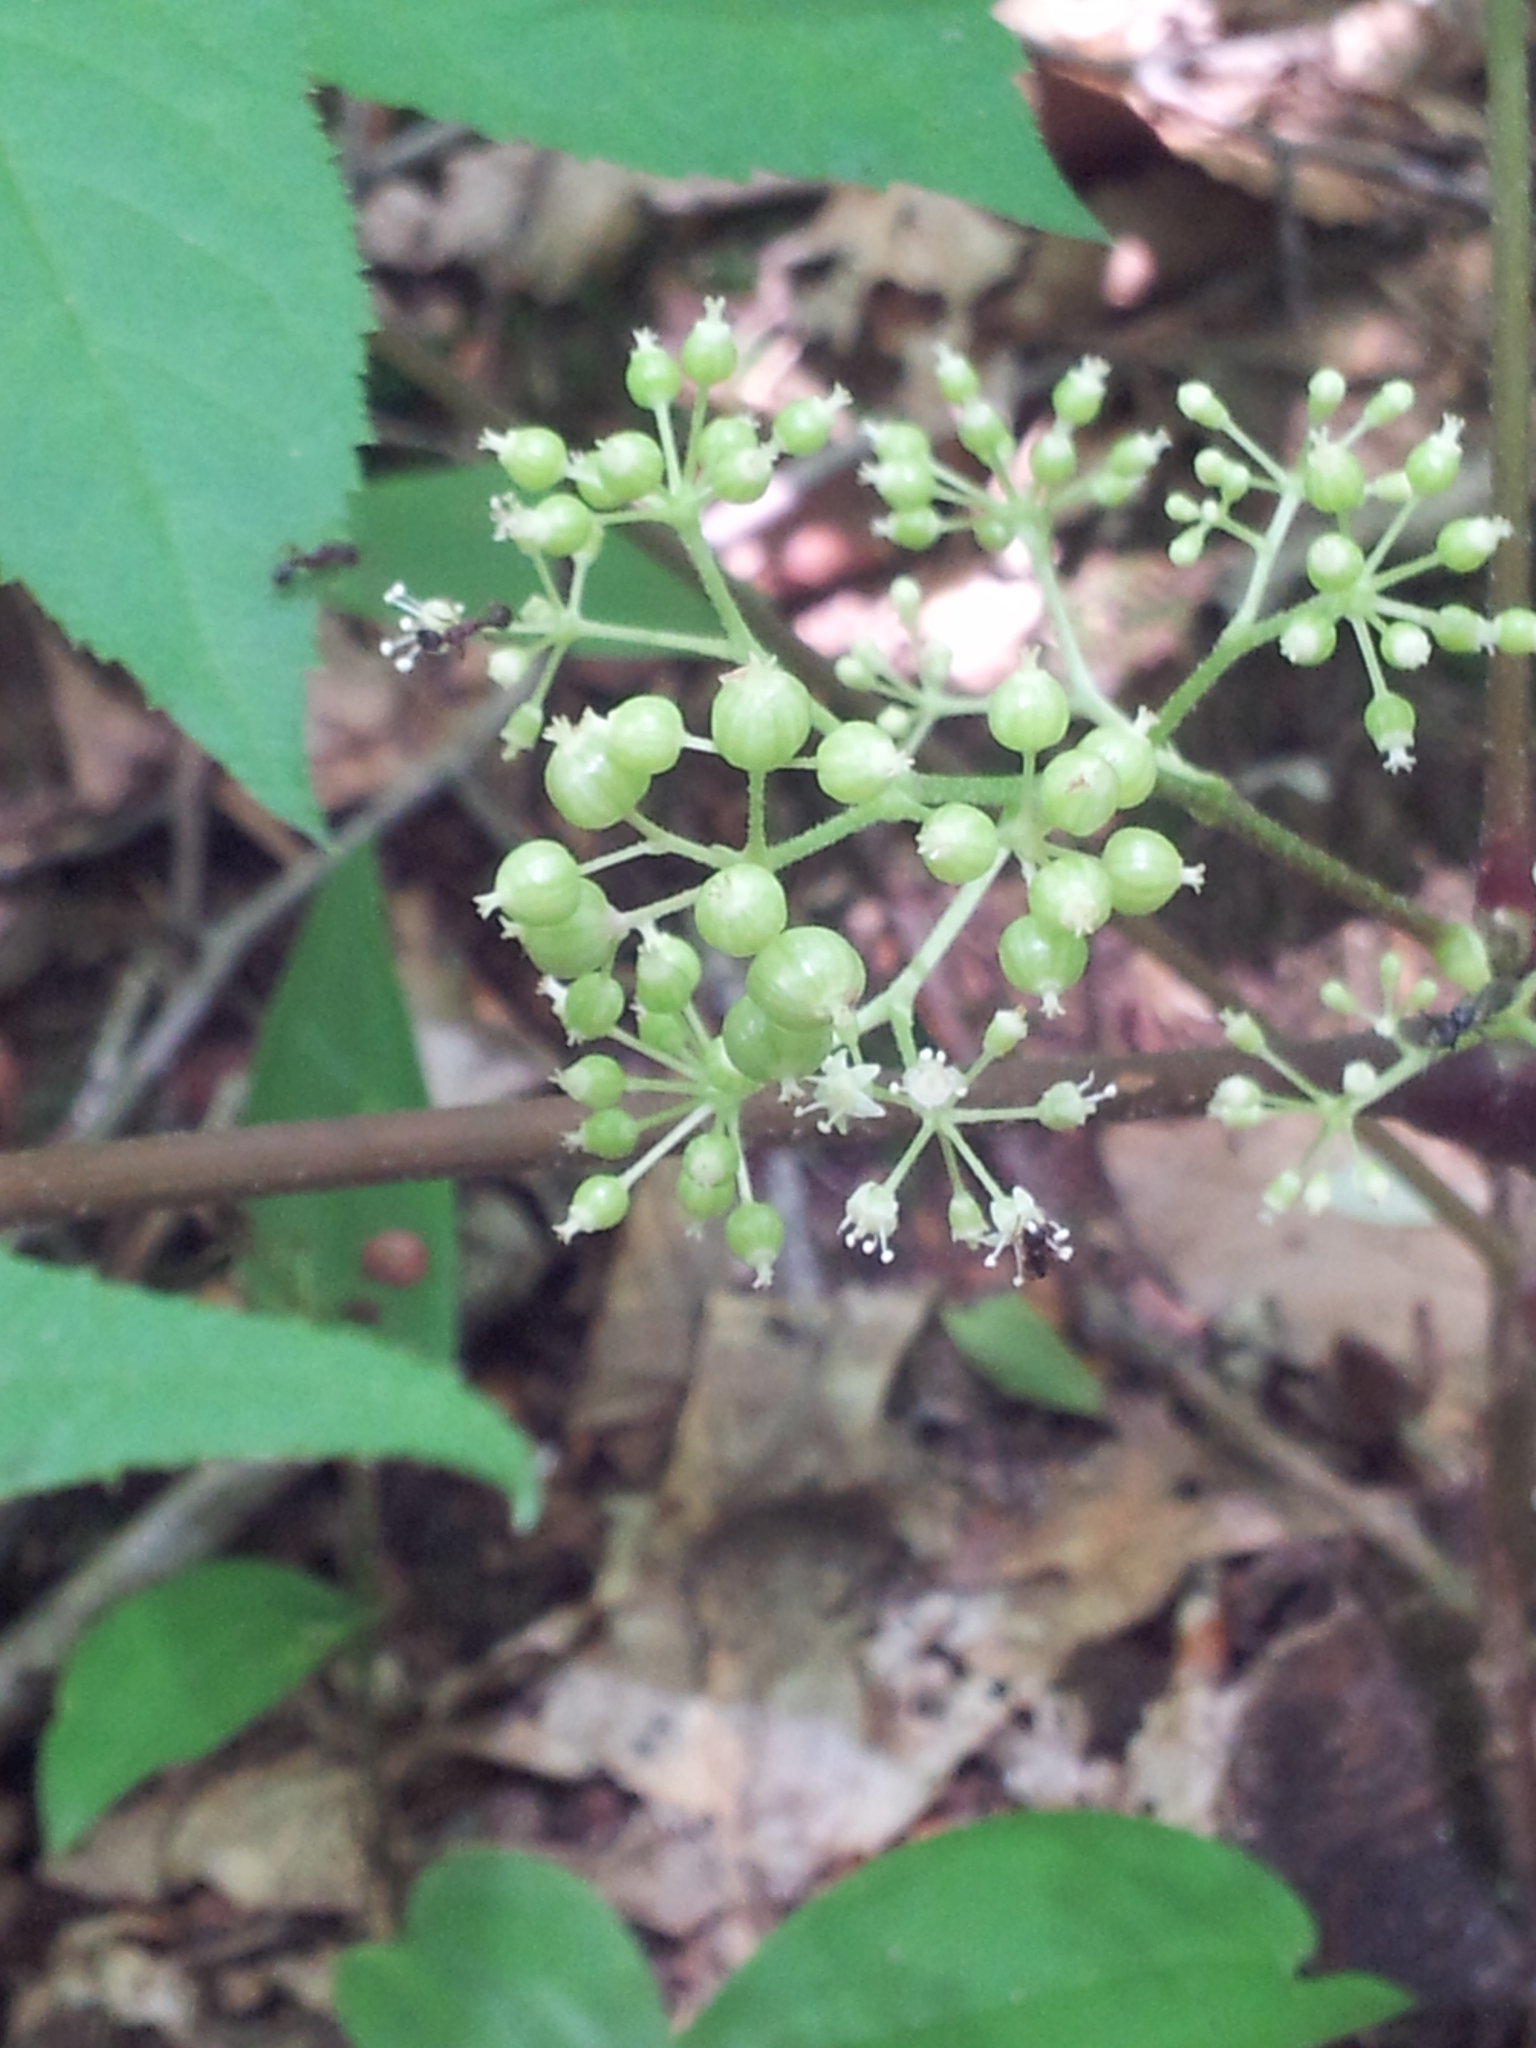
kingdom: Plantae
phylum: Tracheophyta
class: Magnoliopsida
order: Apiales
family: Araliaceae
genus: Aralia
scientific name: Aralia racemosa
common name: American-spikenard
